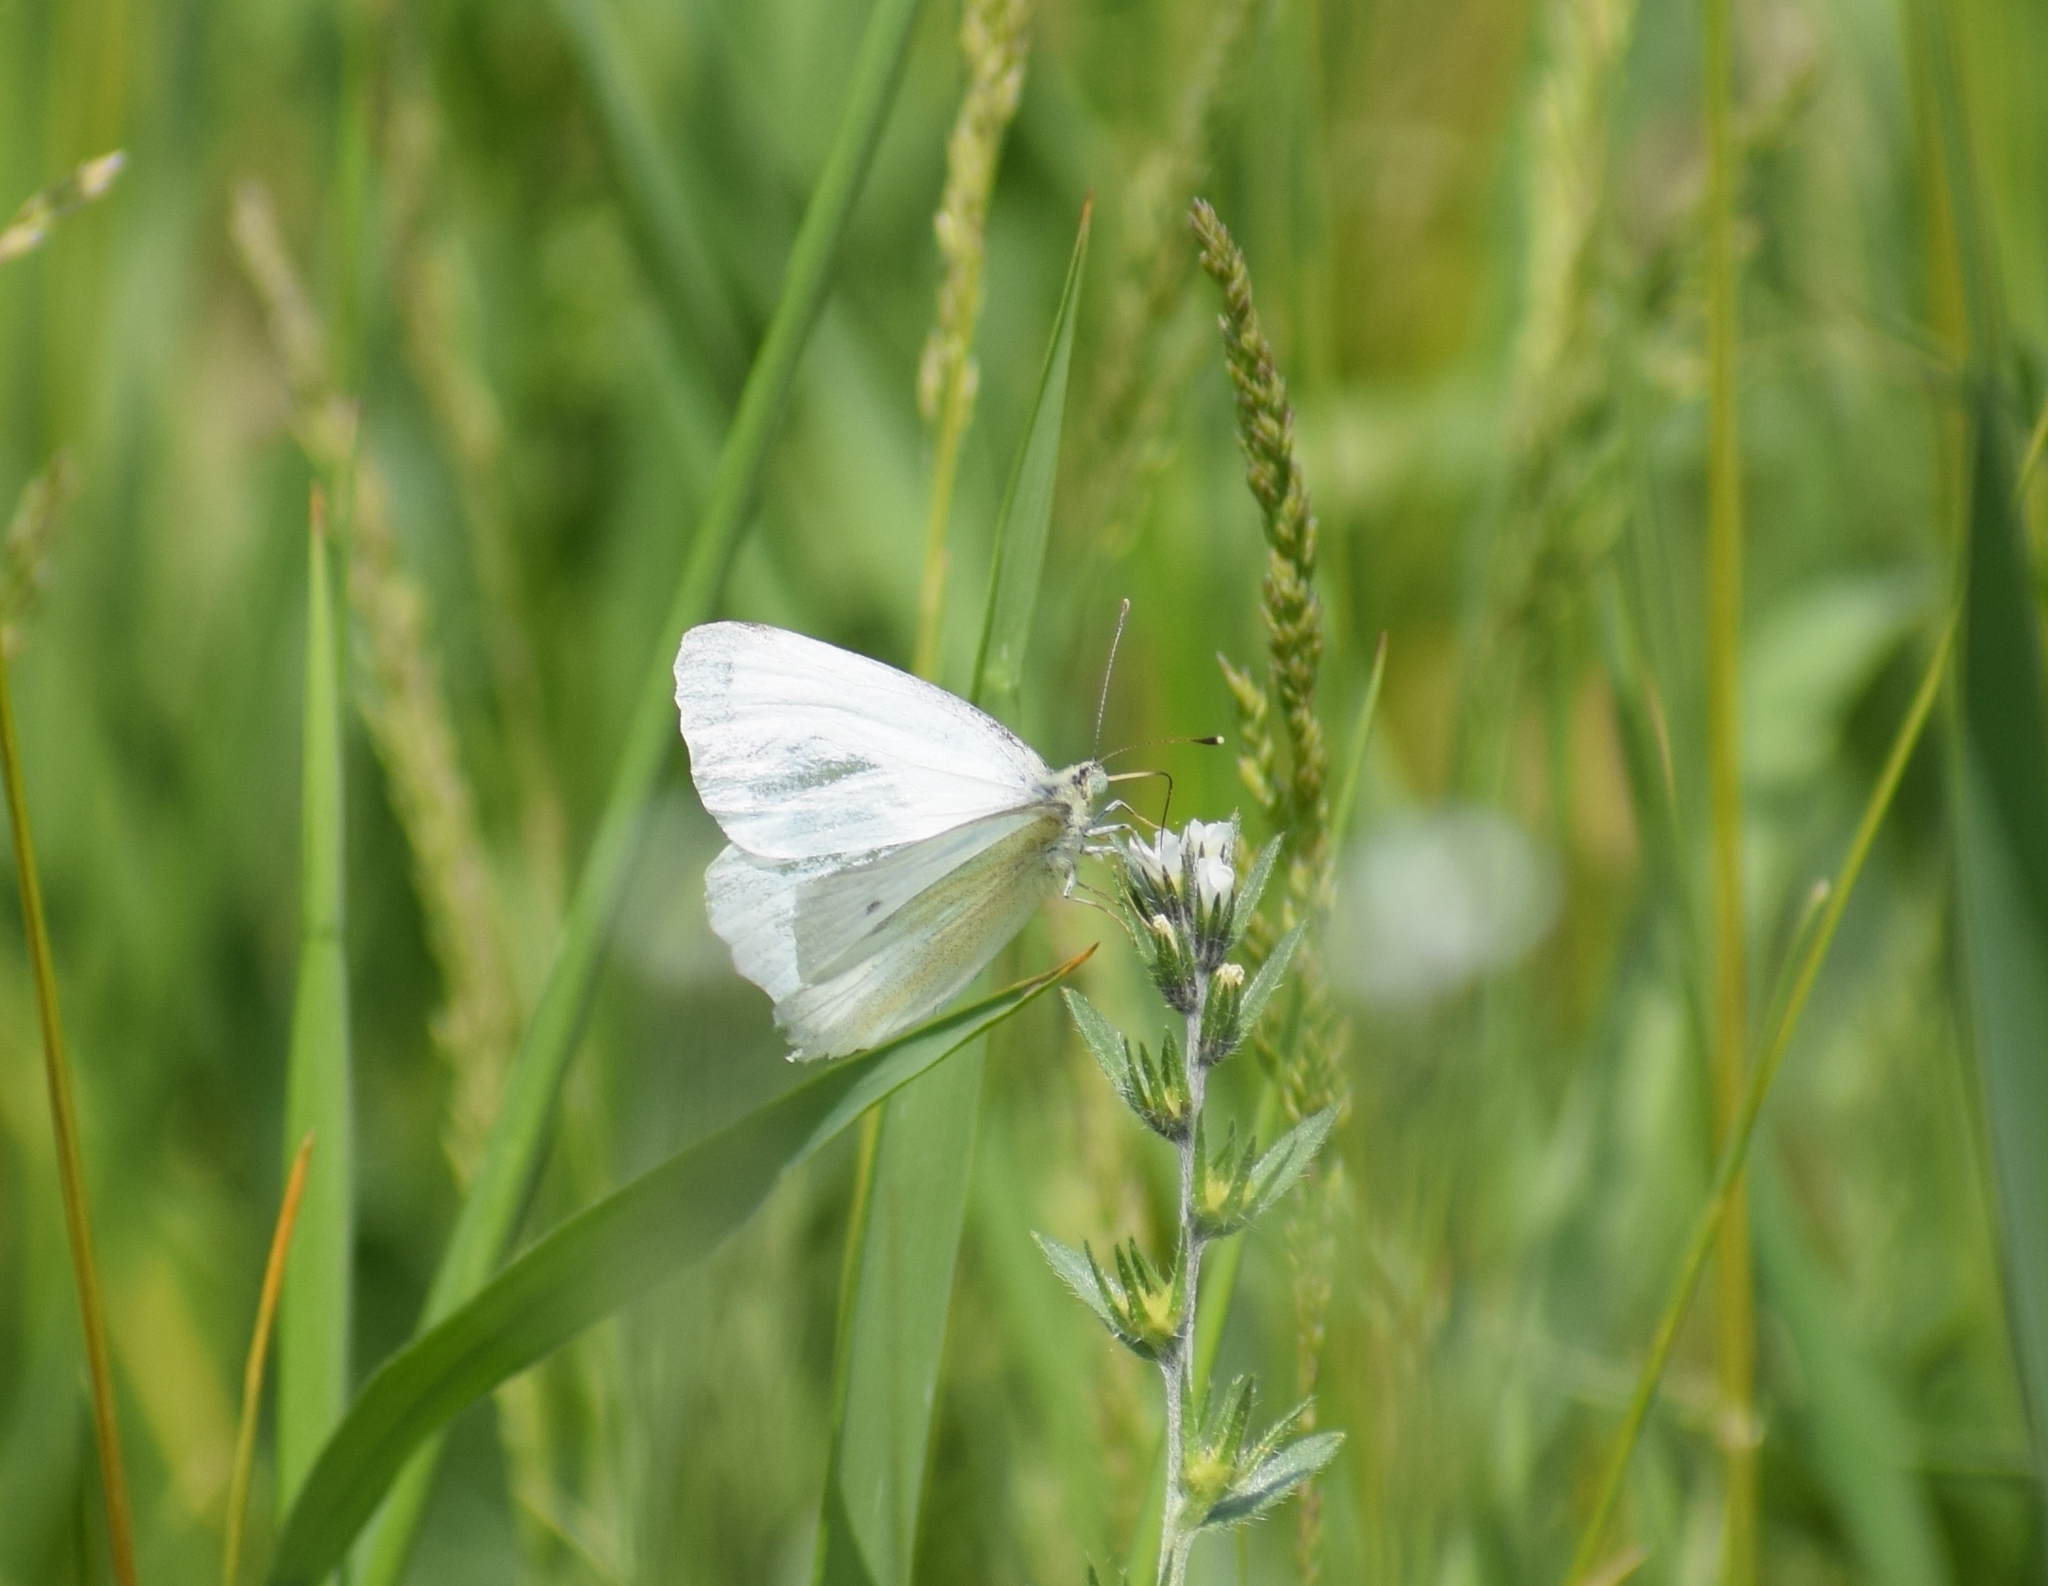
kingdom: Animalia
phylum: Arthropoda
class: Insecta
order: Lepidoptera
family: Pieridae
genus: Pieris
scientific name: Pieris rapae
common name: Small white
